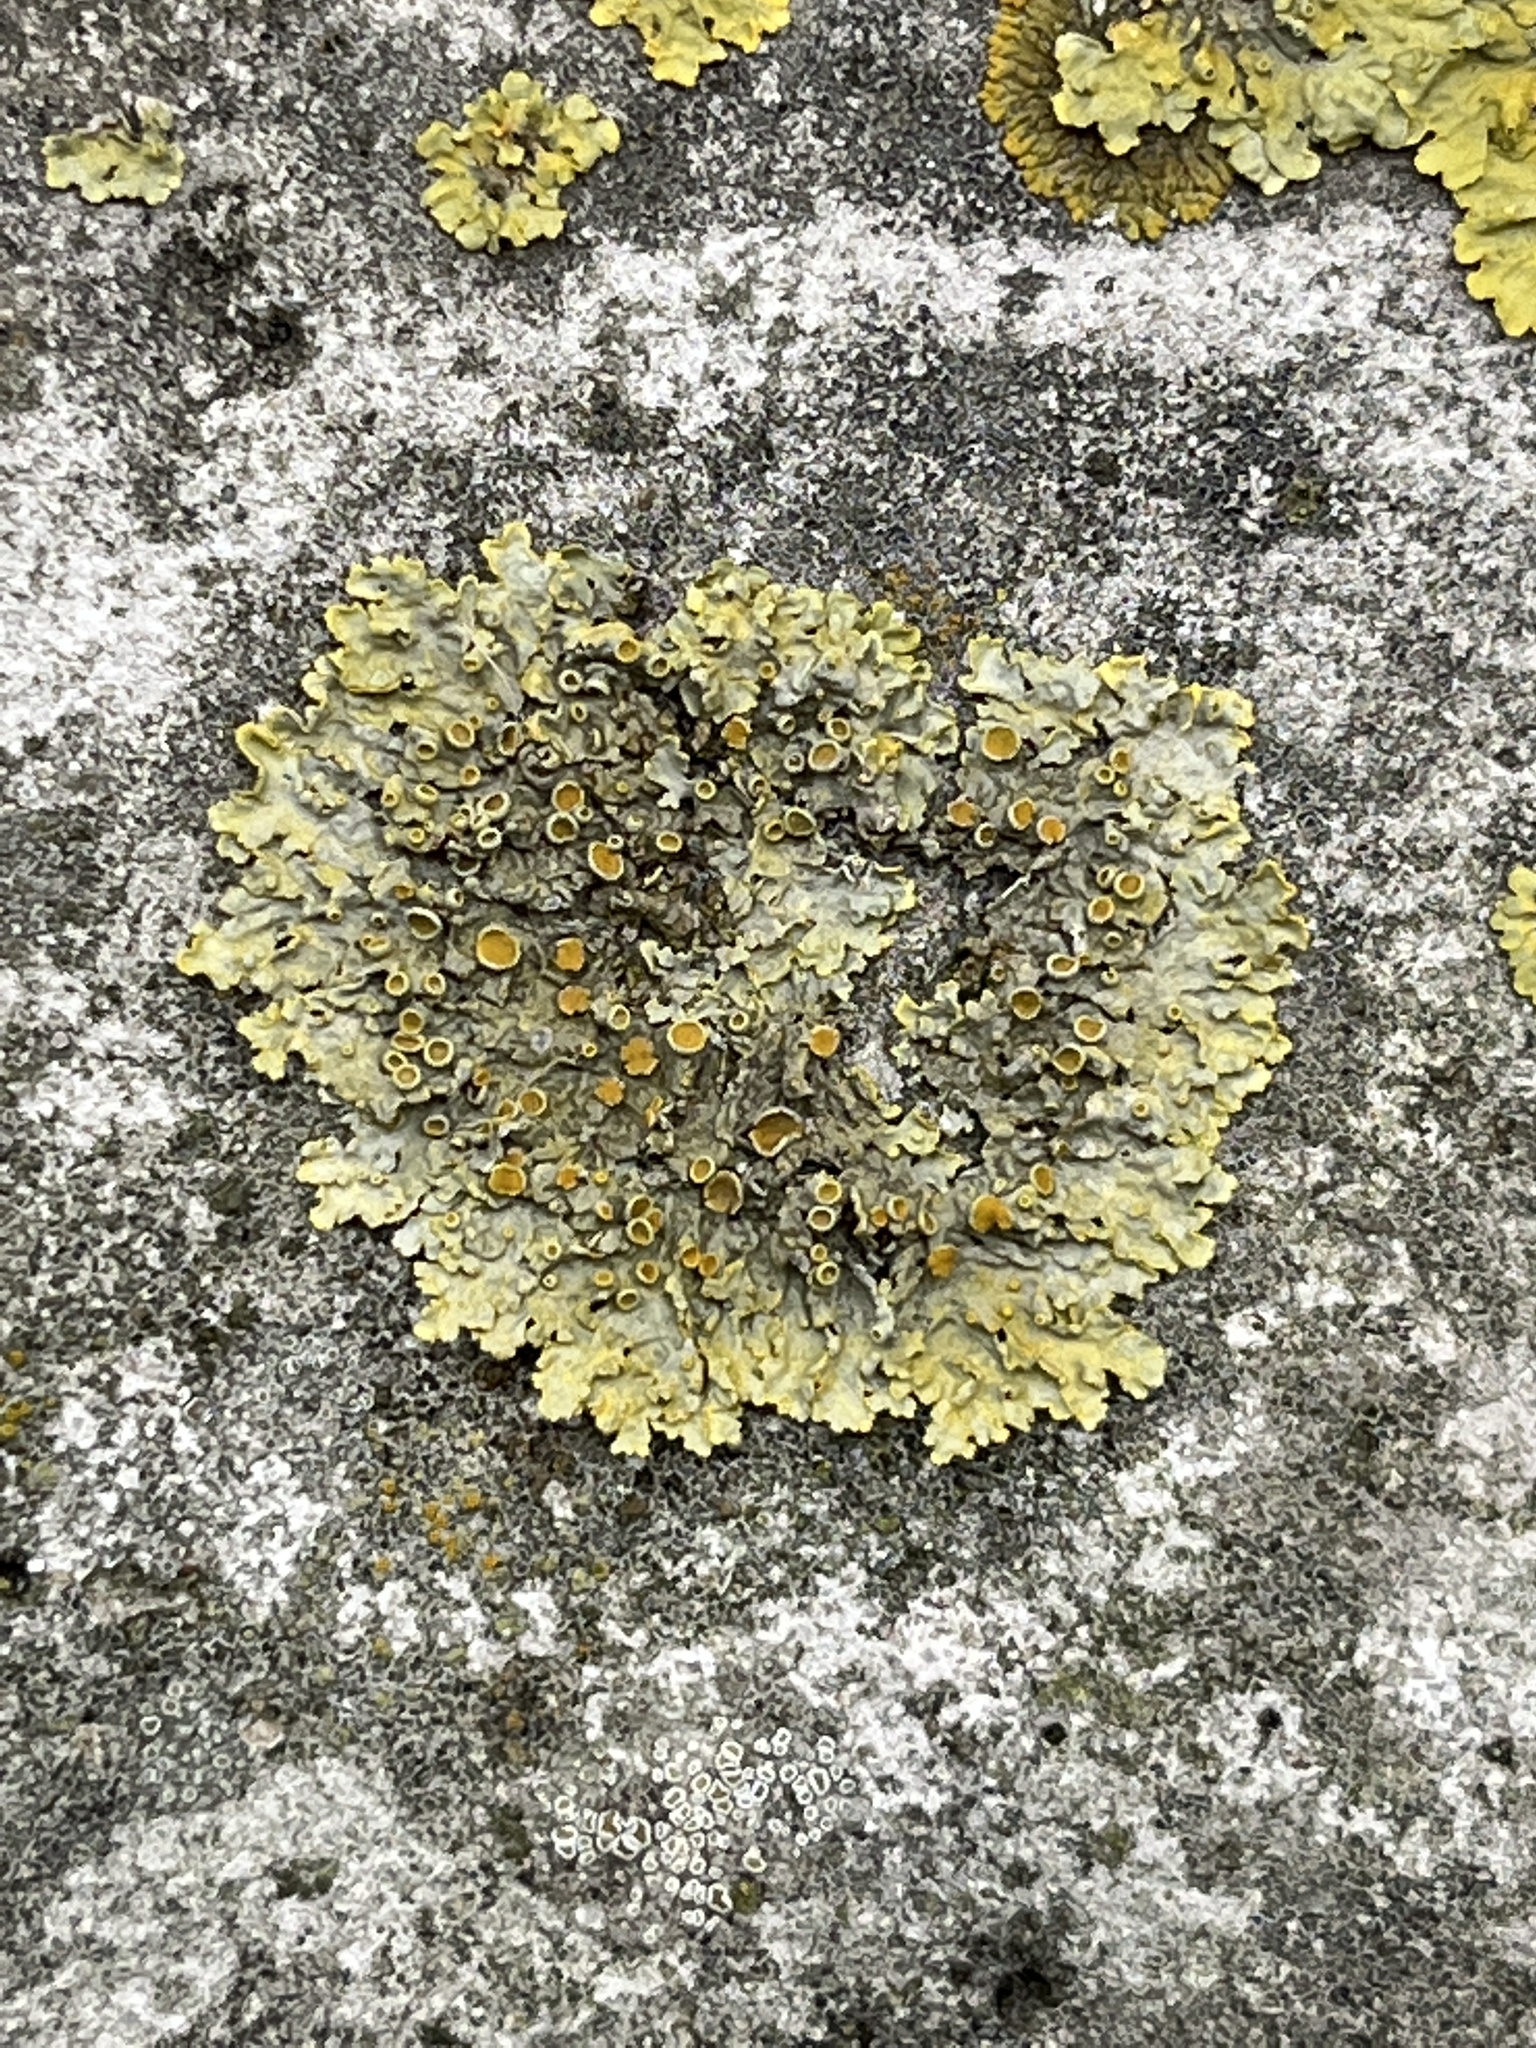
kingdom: Fungi
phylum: Ascomycota
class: Lecanoromycetes
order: Teloschistales
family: Teloschistaceae
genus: Xanthoria
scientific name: Xanthoria parietina
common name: Common orange lichen
